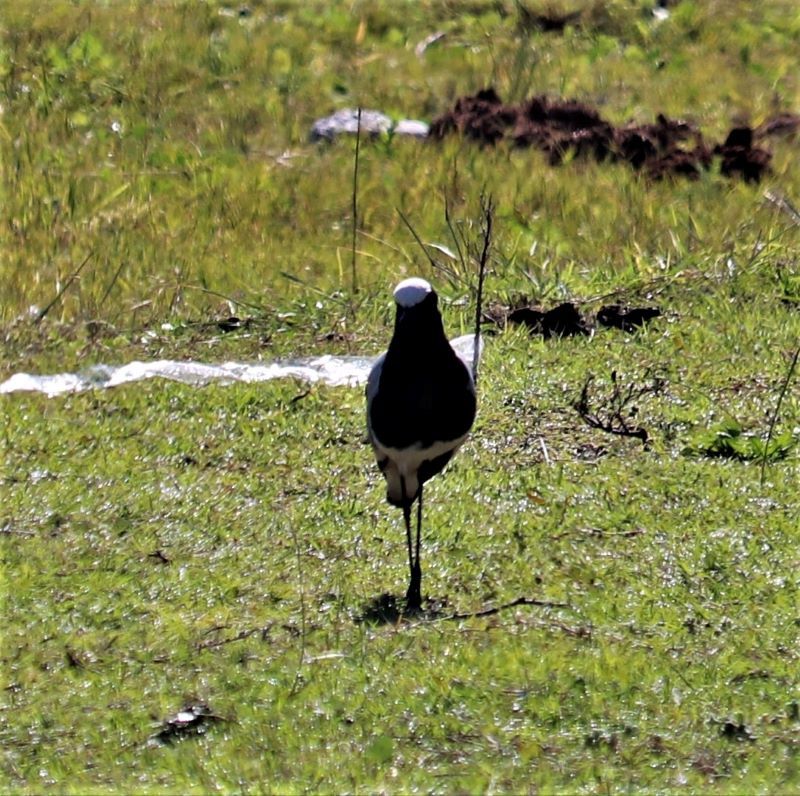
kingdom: Animalia
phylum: Chordata
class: Aves
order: Charadriiformes
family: Charadriidae
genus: Vanellus
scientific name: Vanellus armatus
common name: Blacksmith lapwing
